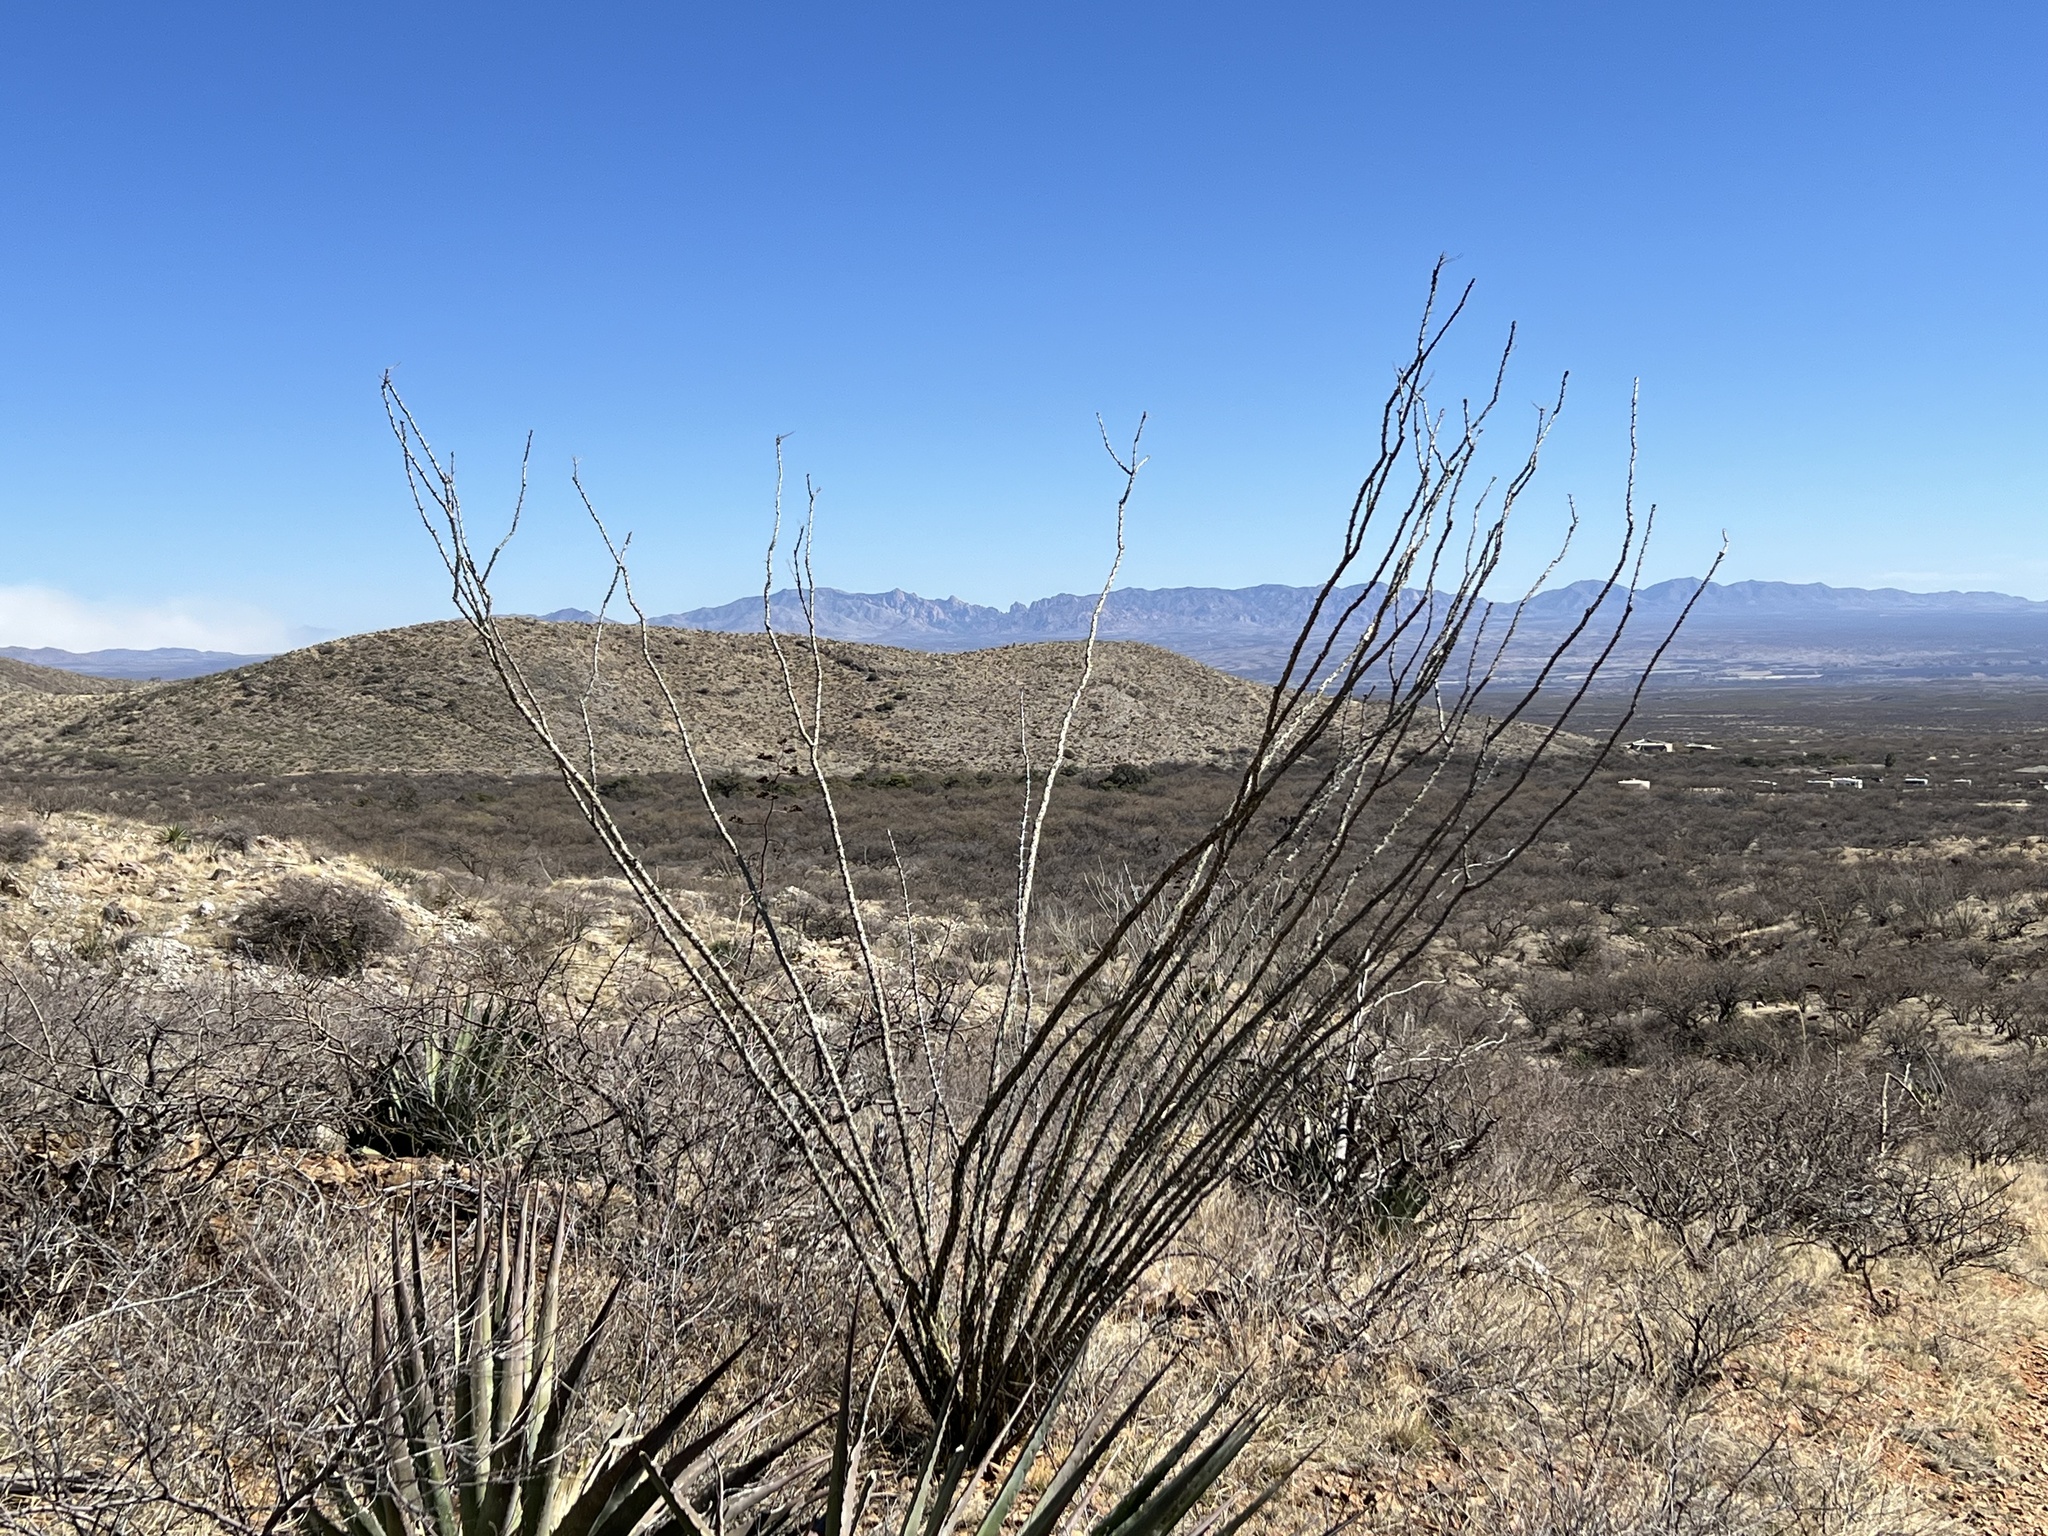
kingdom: Plantae
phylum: Tracheophyta
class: Magnoliopsida
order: Ericales
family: Fouquieriaceae
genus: Fouquieria
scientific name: Fouquieria splendens
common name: Vine-cactus
